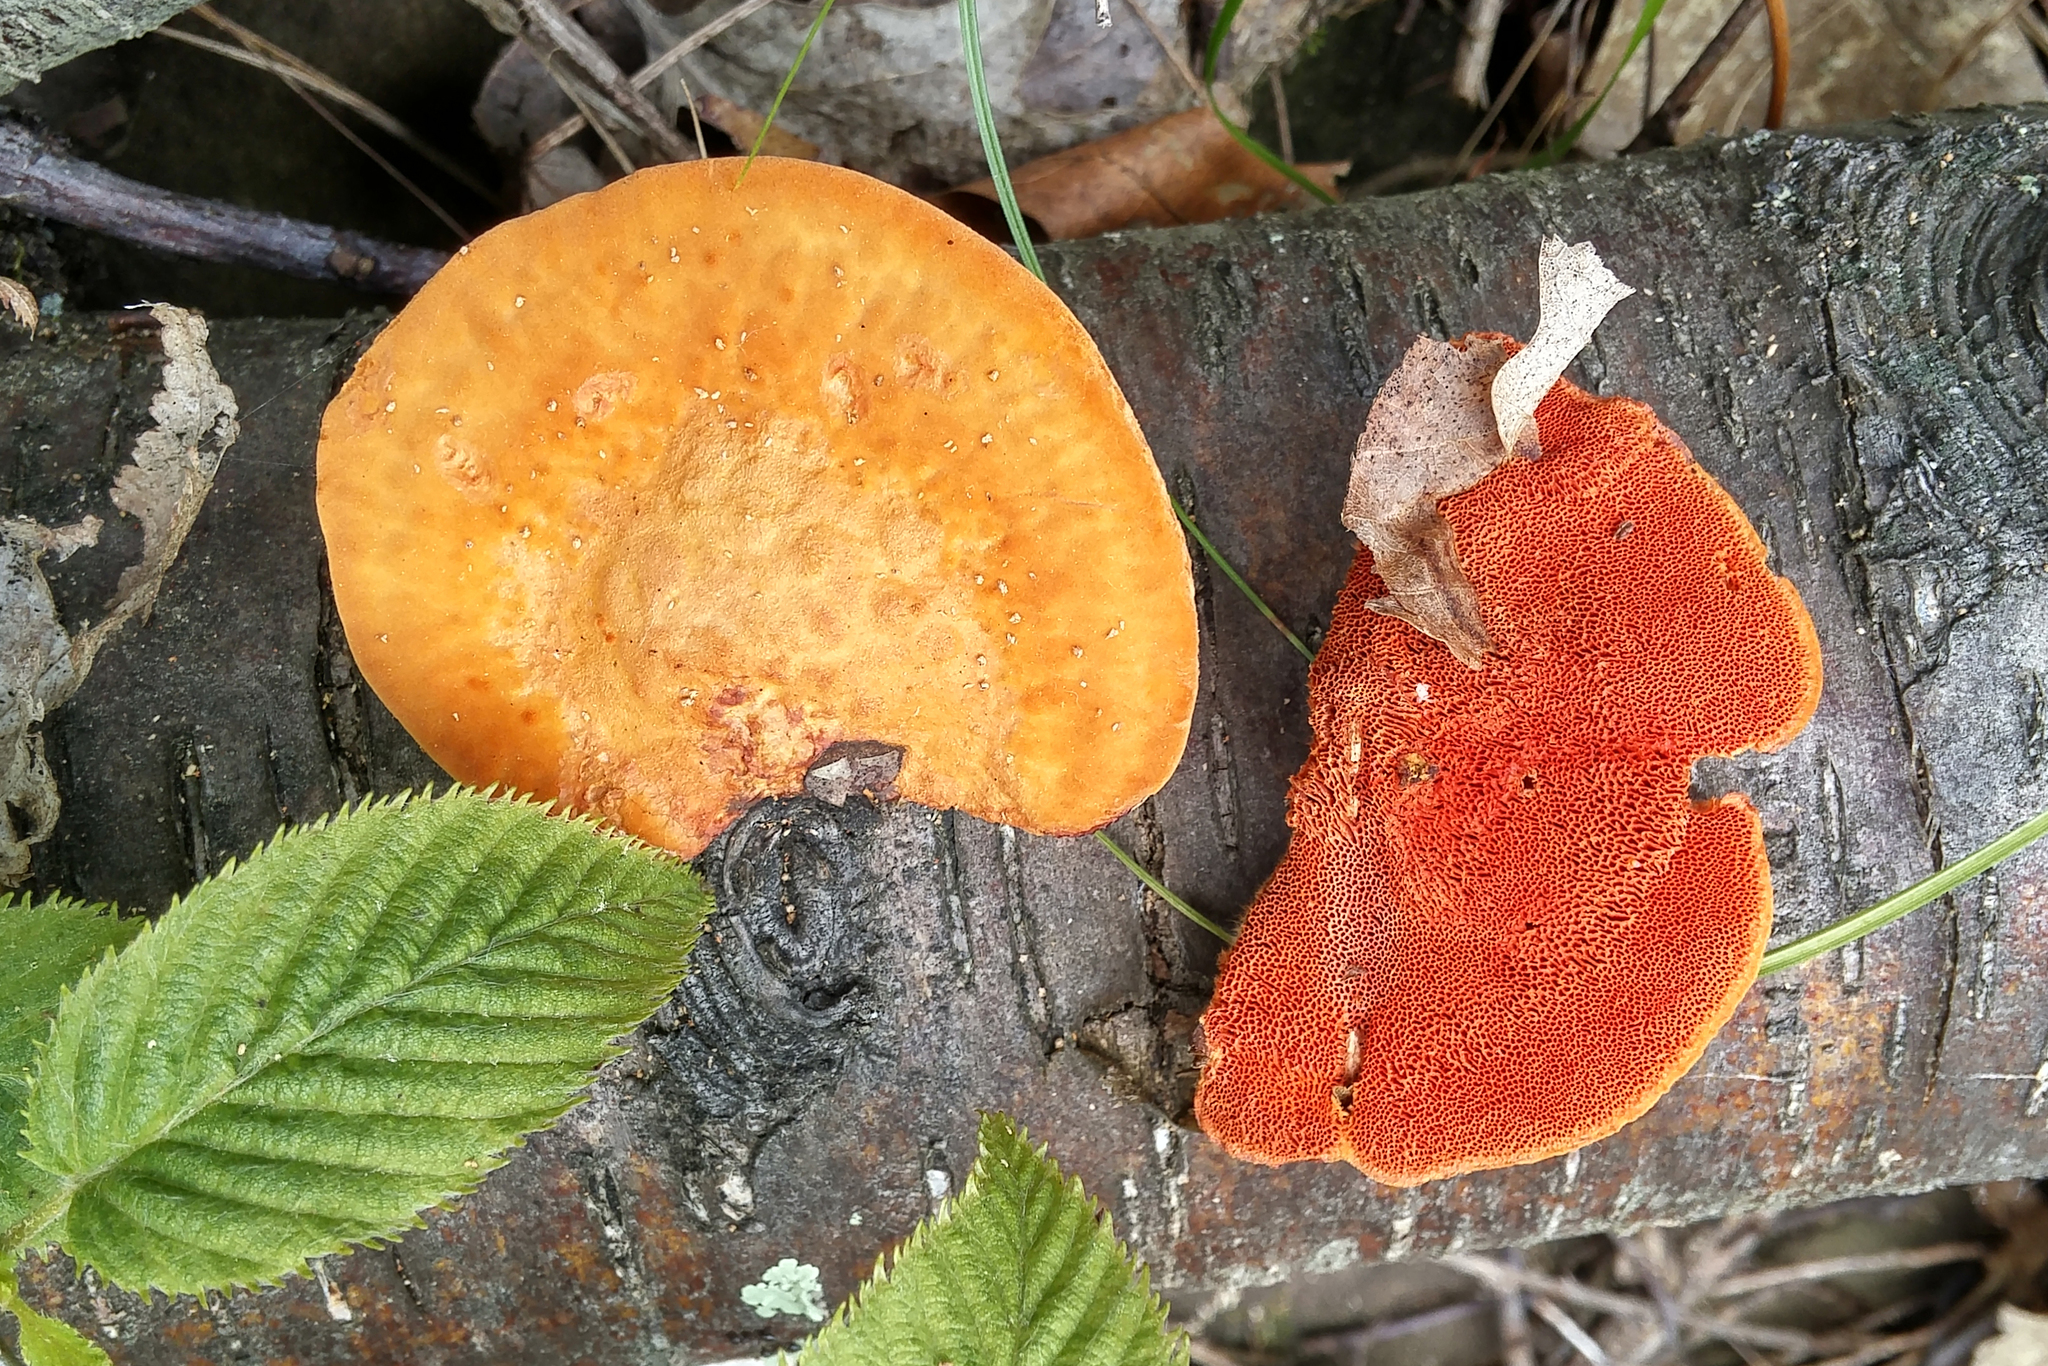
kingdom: Fungi
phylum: Basidiomycota
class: Agaricomycetes
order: Polyporales
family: Polyporaceae
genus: Trametes
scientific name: Trametes cinnabarina
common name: Northern cinnabar polypore
